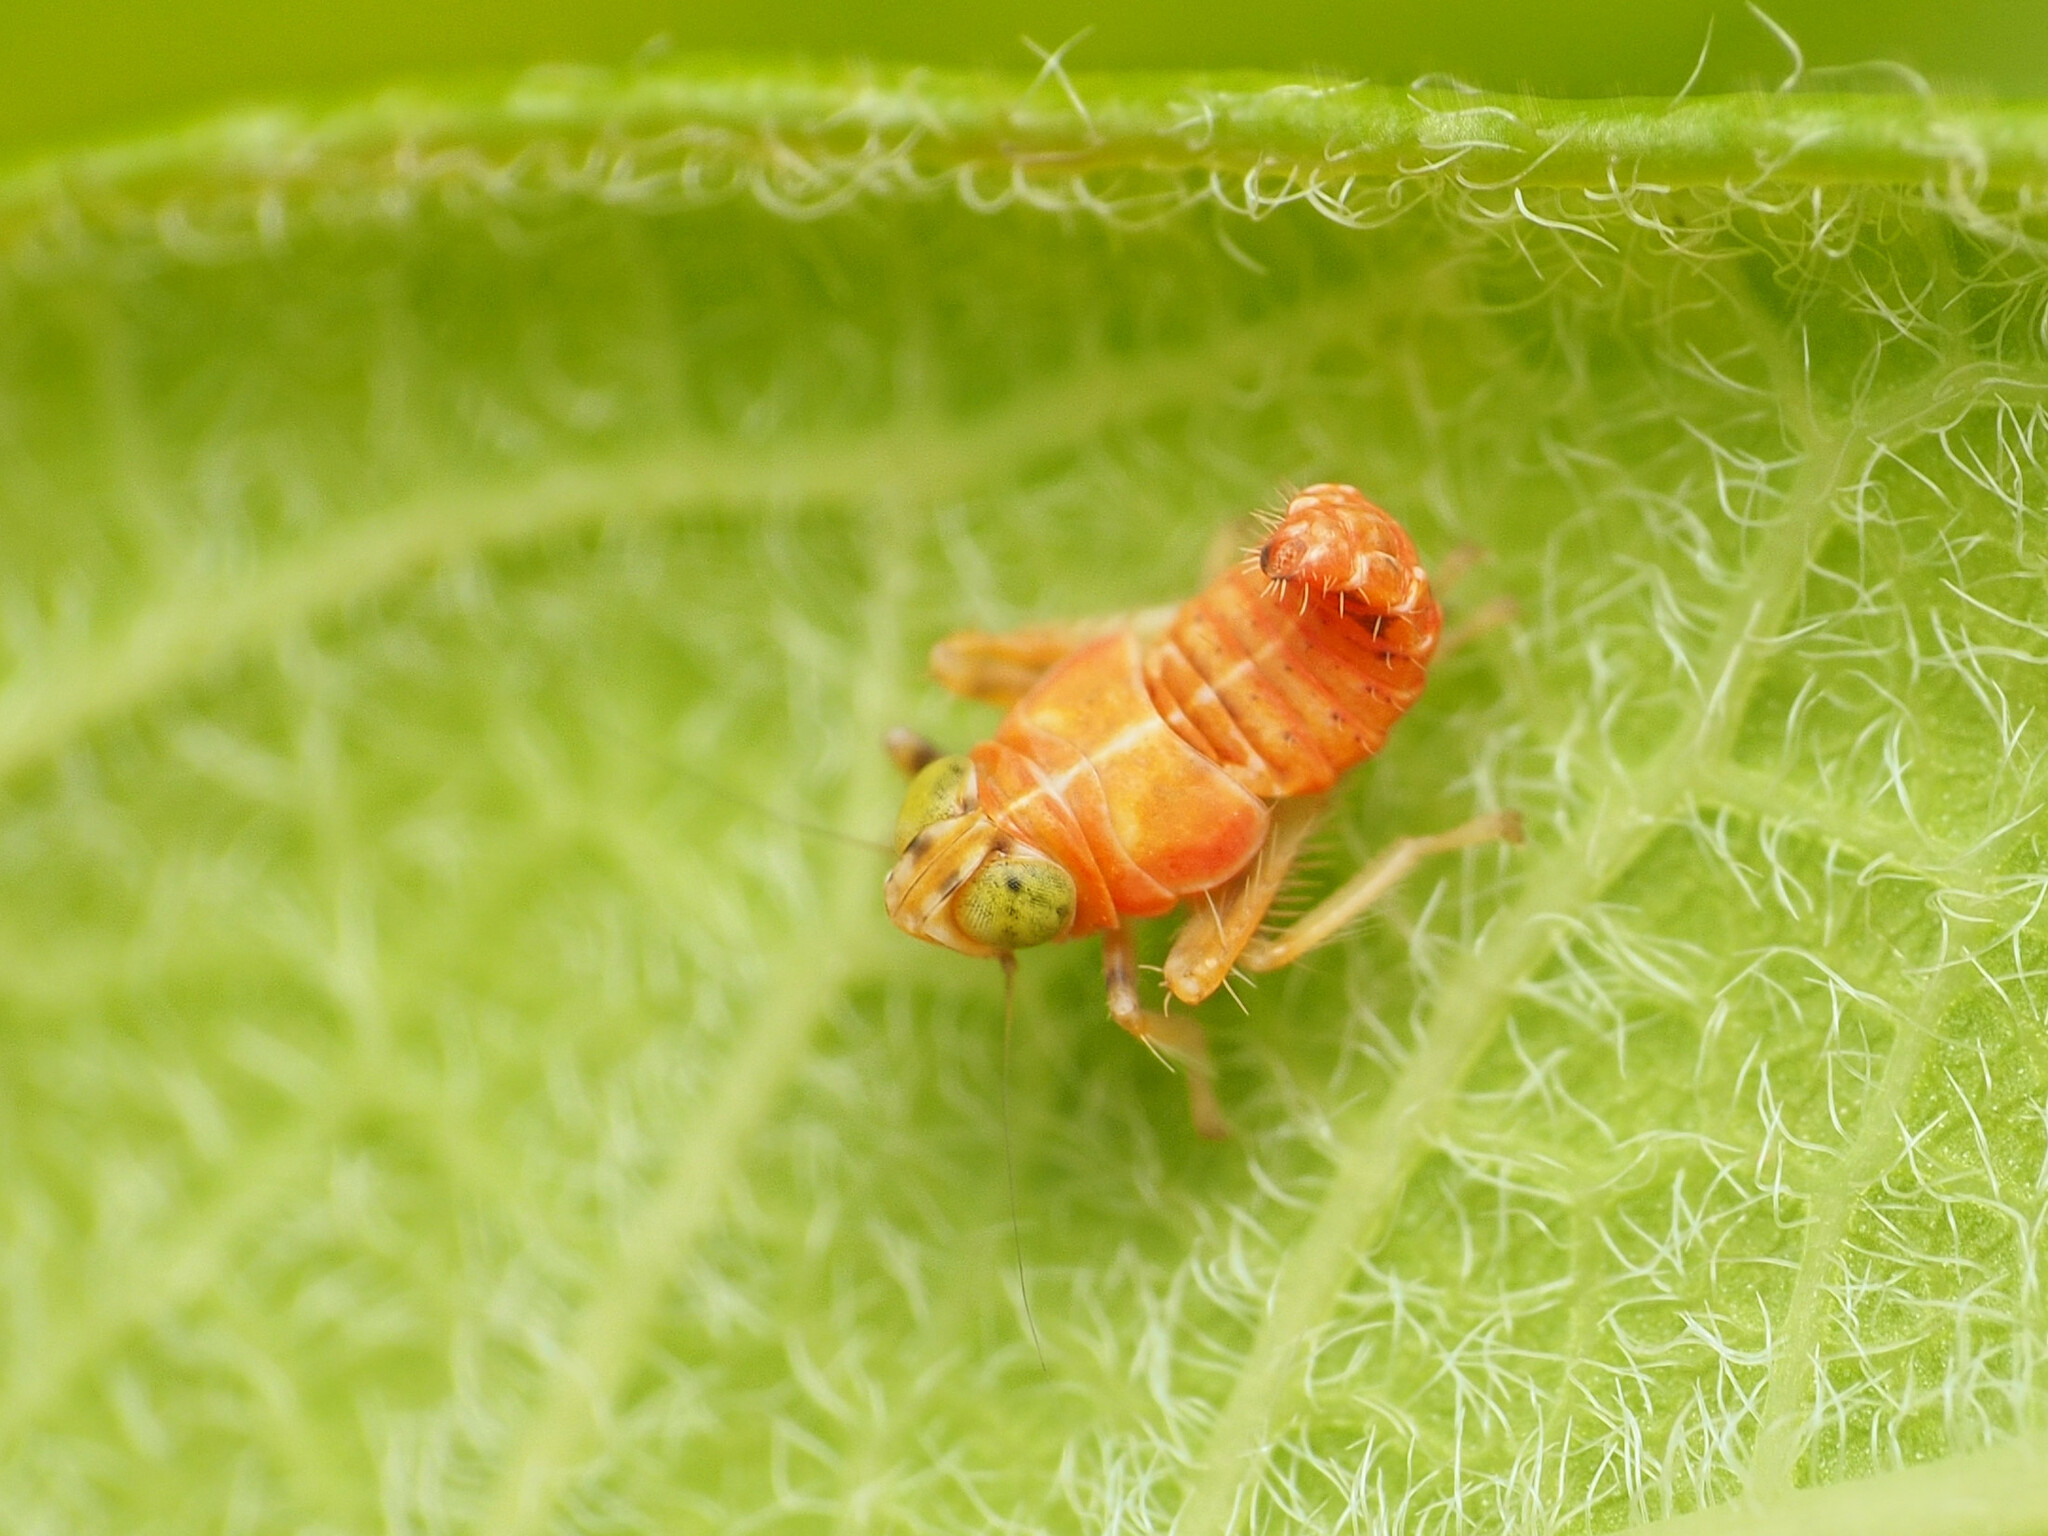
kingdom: Animalia
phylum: Arthropoda
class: Insecta
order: Hemiptera
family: Cicadellidae
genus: Jikradia
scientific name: Jikradia olitoria
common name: Coppery leafhopper
